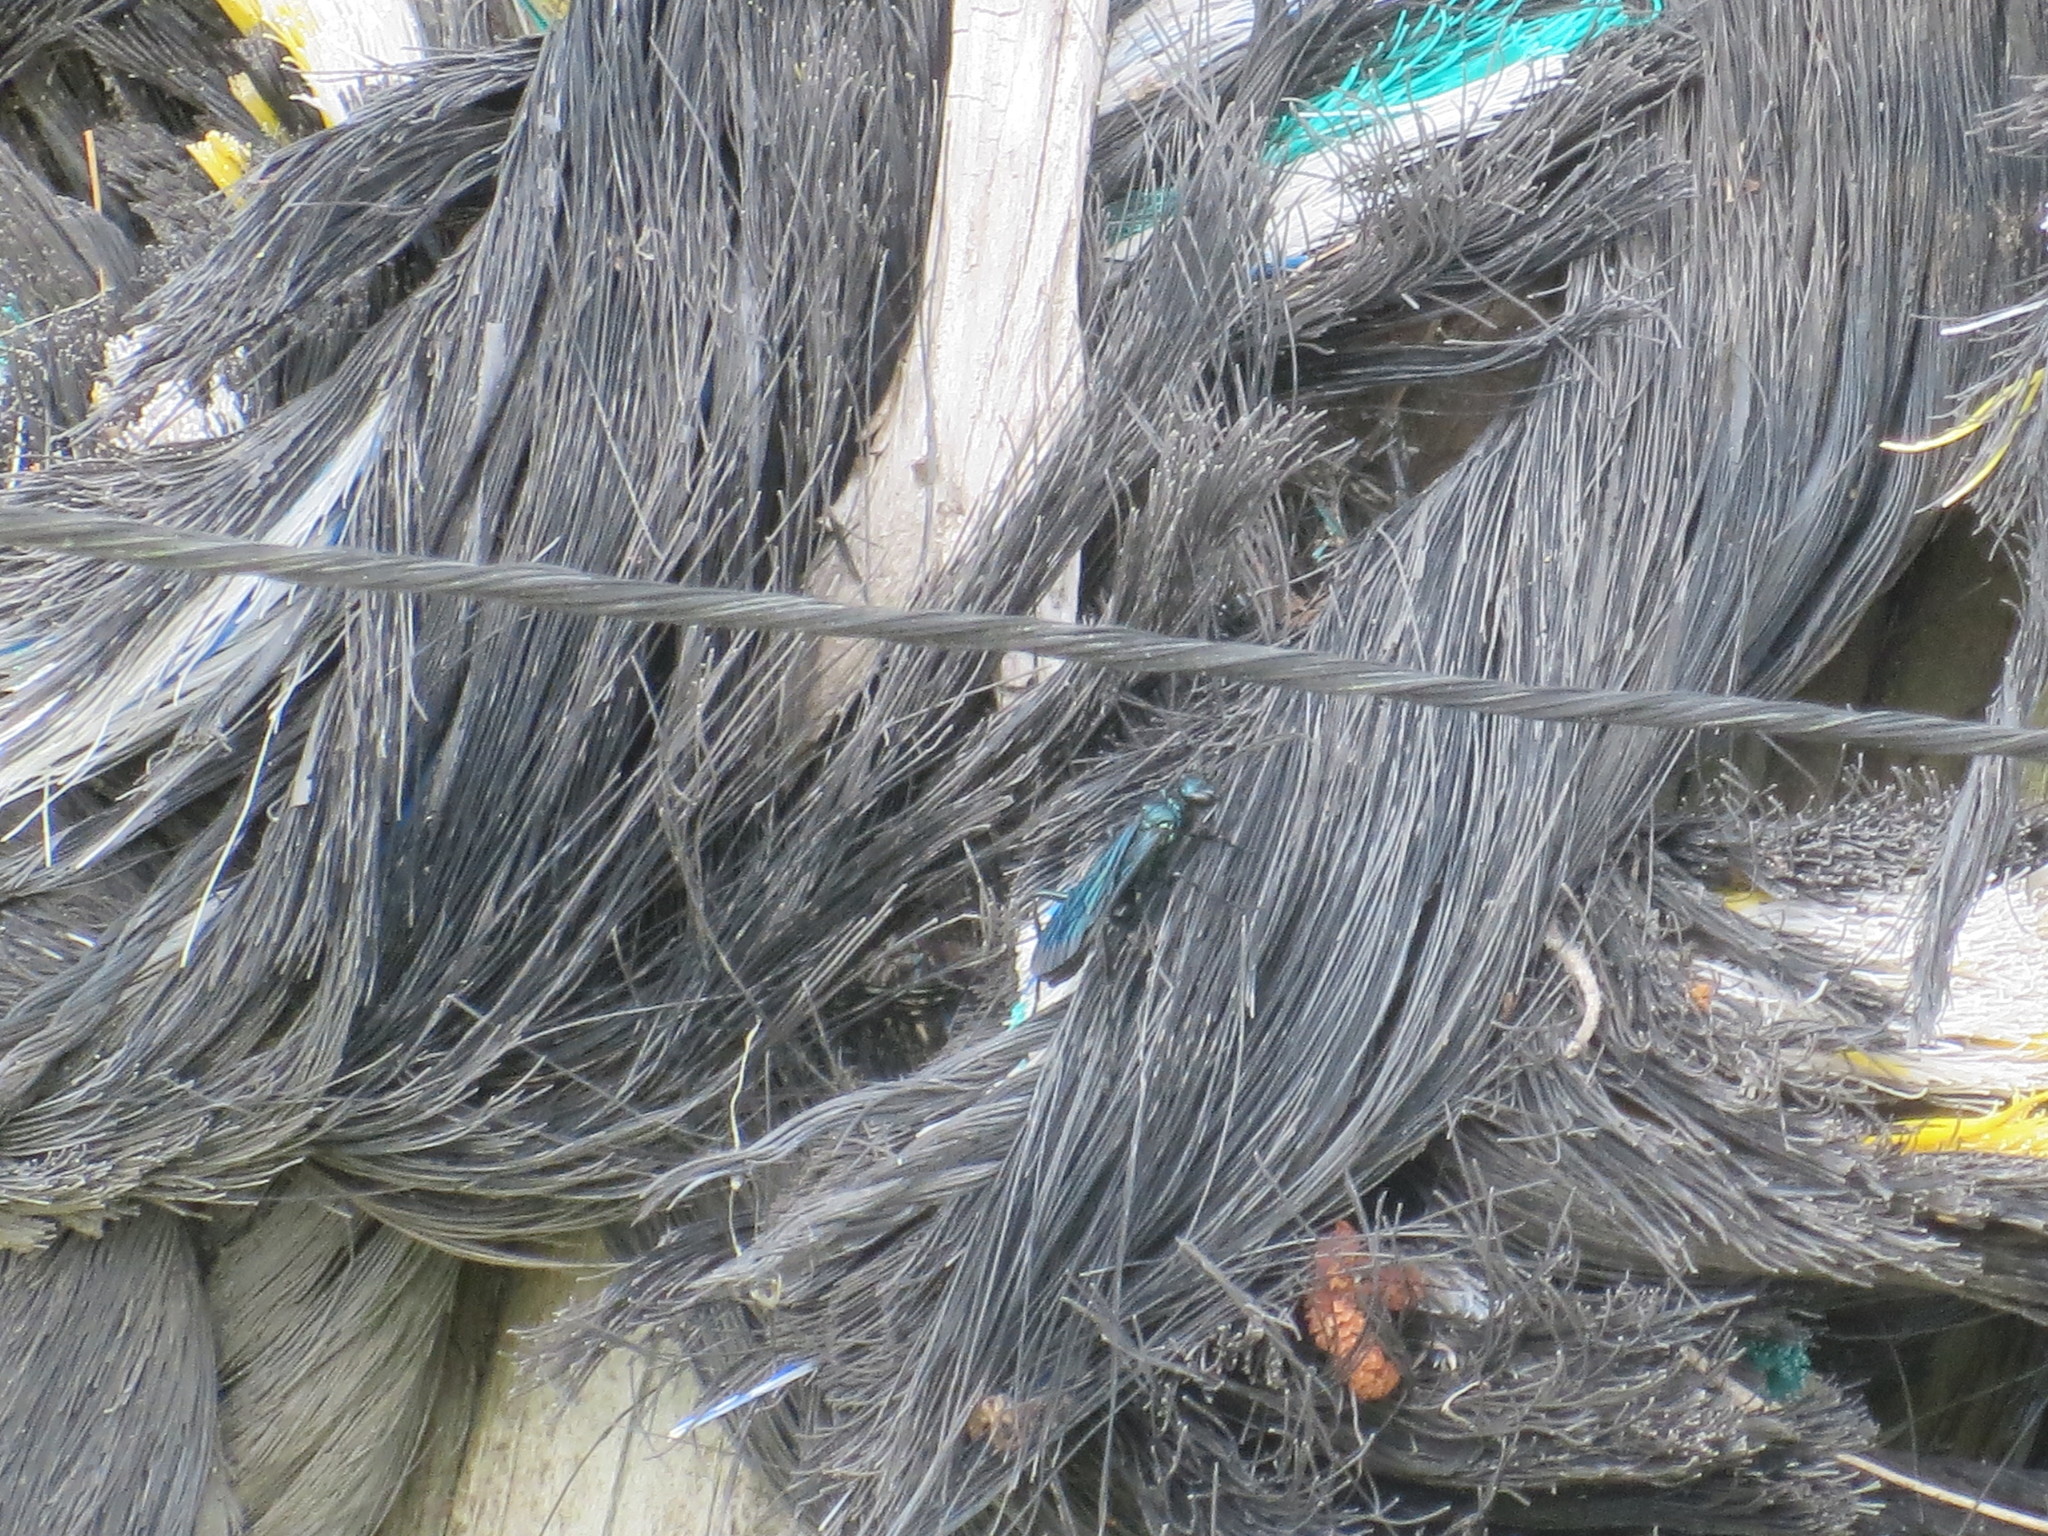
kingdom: Animalia
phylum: Arthropoda
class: Insecta
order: Hymenoptera
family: Sphecidae
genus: Chalybion
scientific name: Chalybion californicum
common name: Mud dauber
